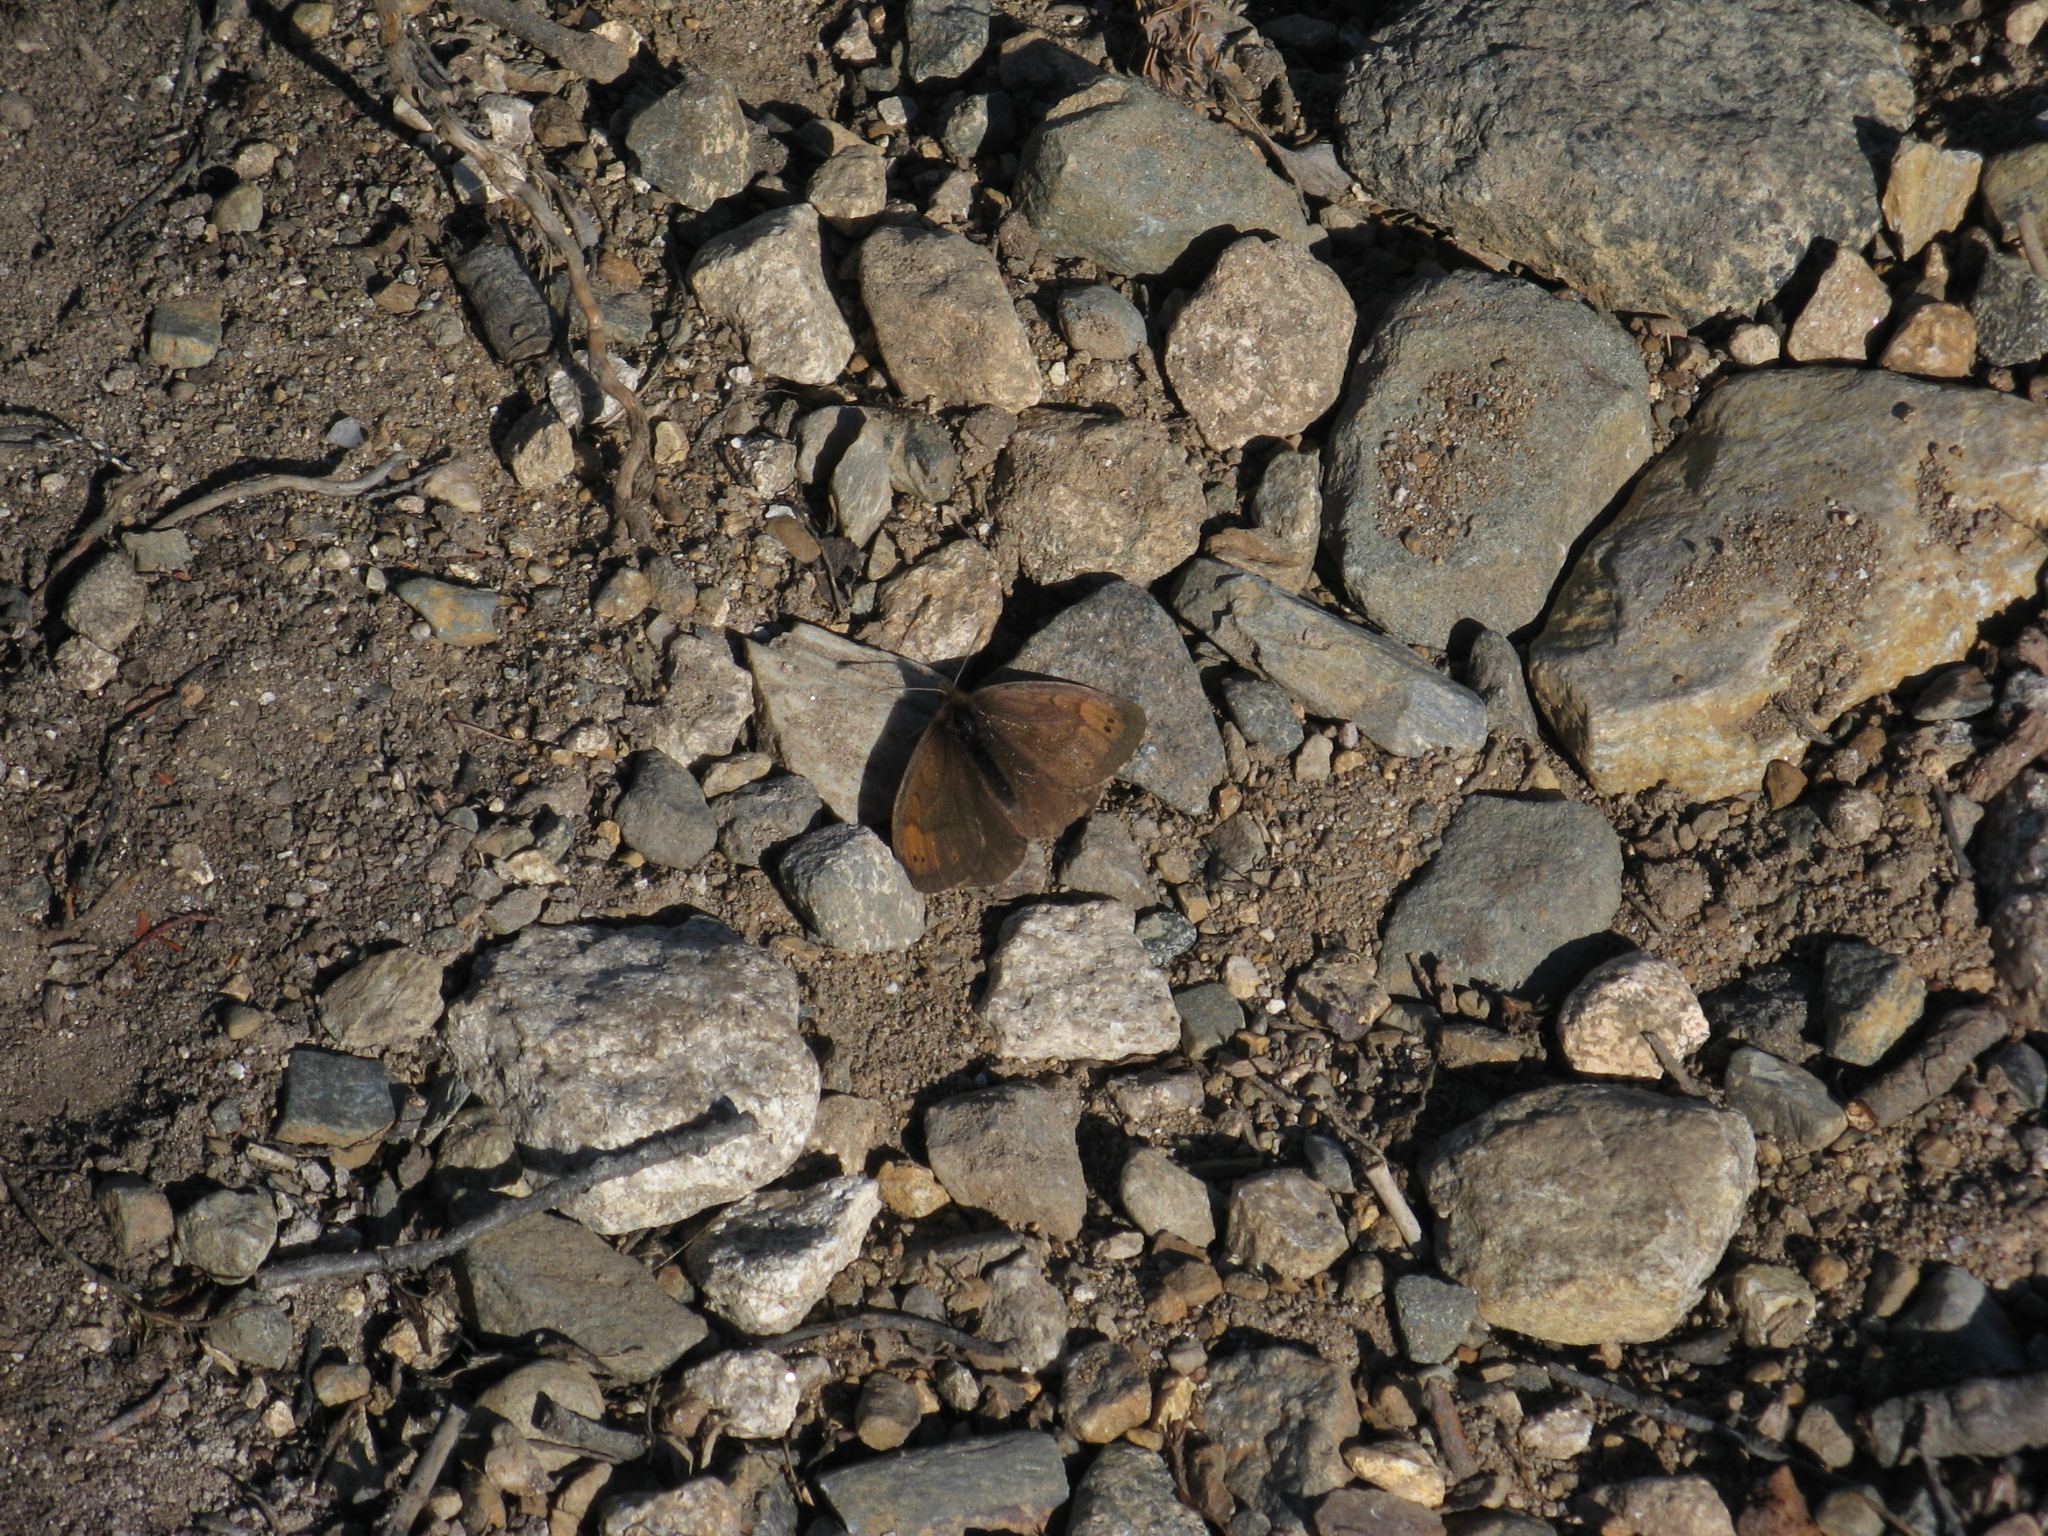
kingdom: Animalia
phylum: Arthropoda
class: Insecta
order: Lepidoptera
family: Nymphalidae
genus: Erebia
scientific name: Erebia pandrose
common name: Dewy ringlet
